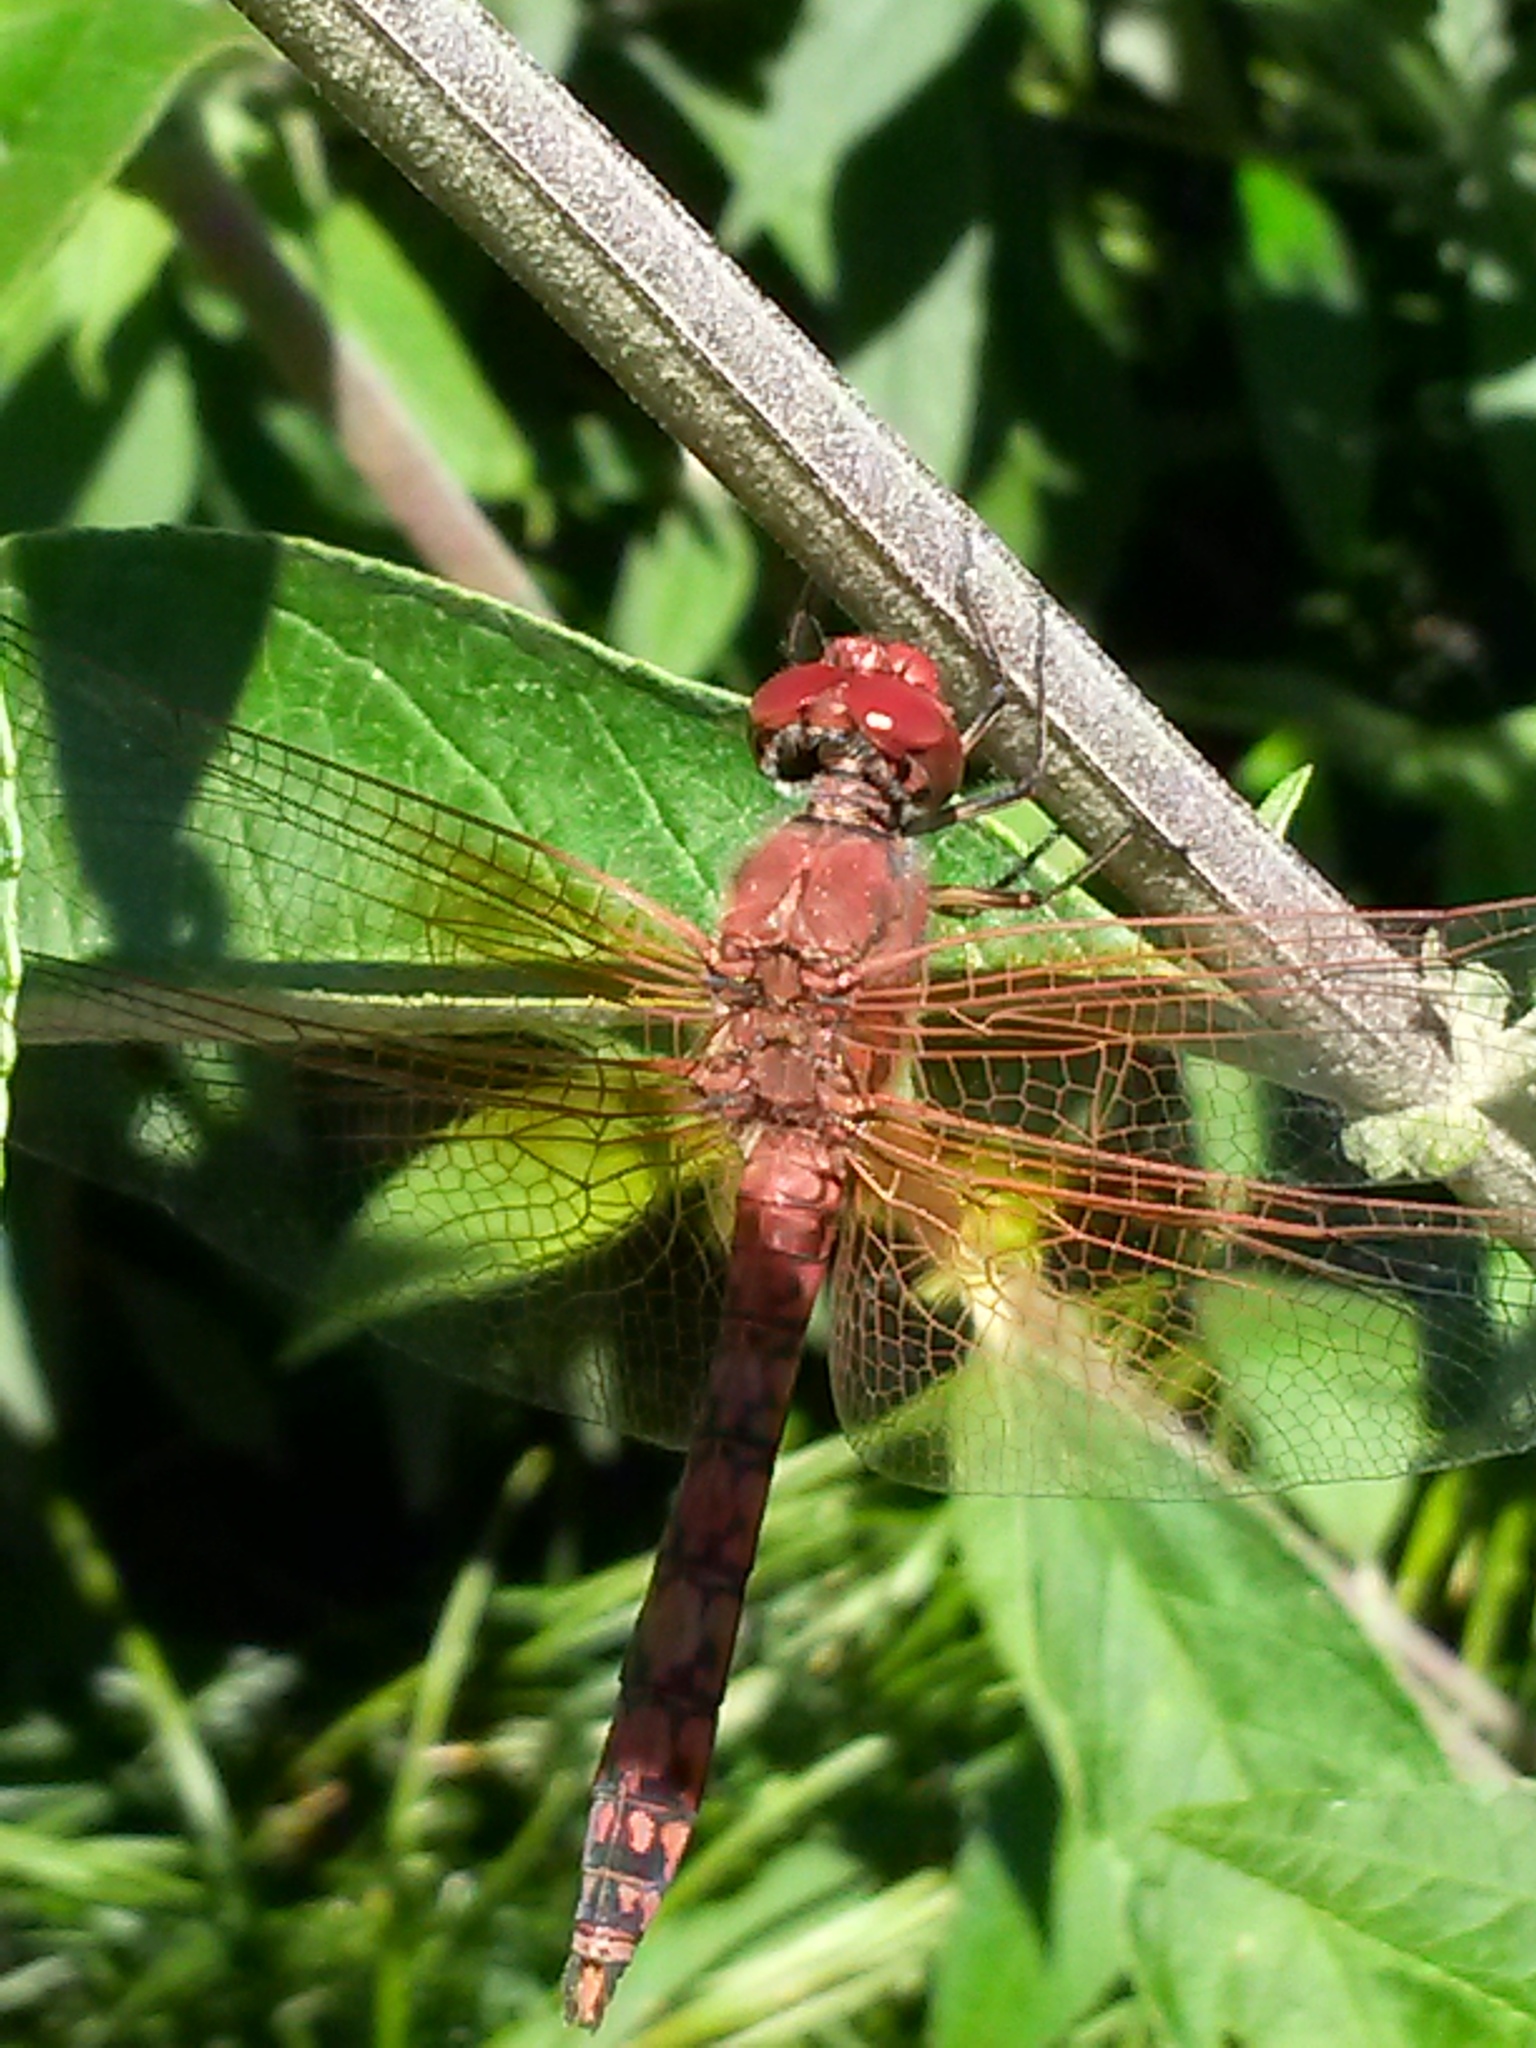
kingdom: Animalia
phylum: Arthropoda
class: Insecta
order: Odonata
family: Libellulidae
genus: Paltothemis
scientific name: Paltothemis lineatipes
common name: Red rock skimmer
